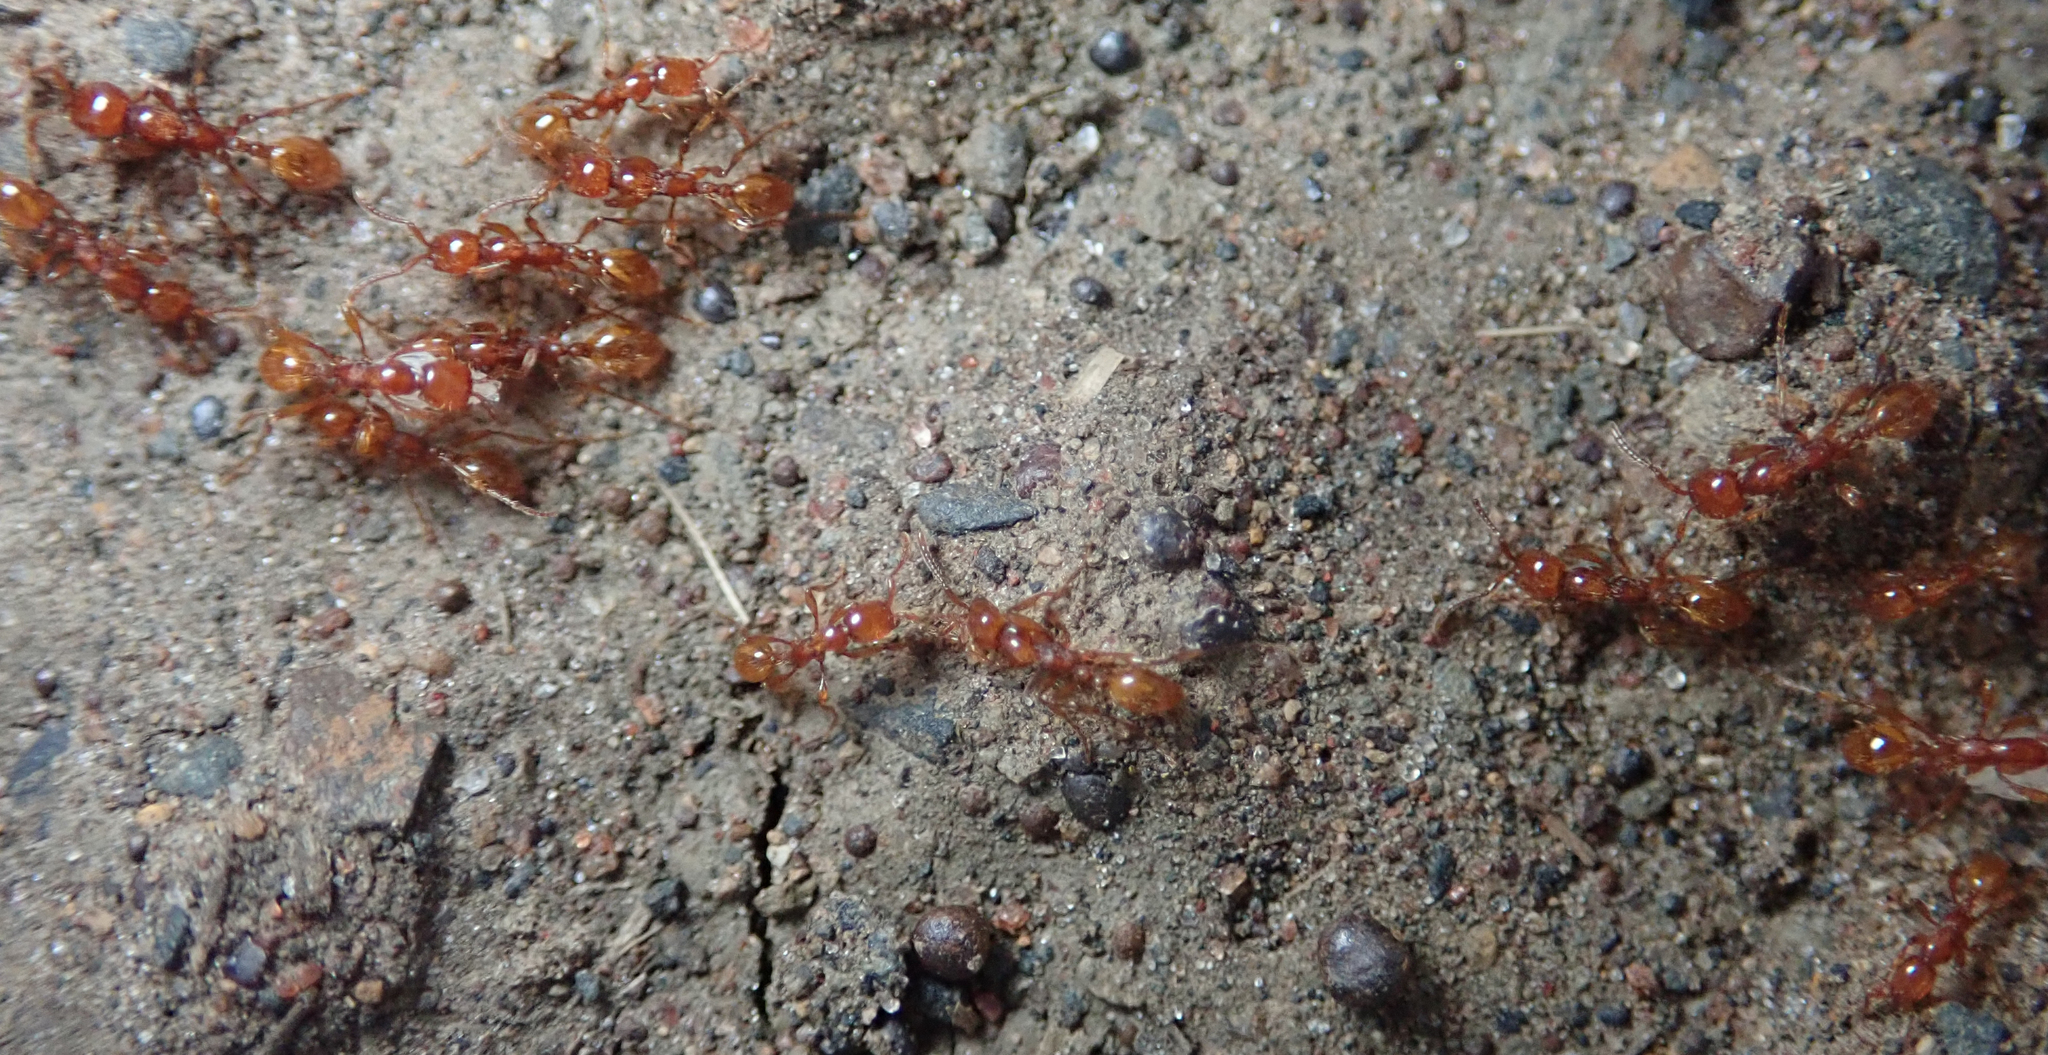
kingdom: Animalia
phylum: Arthropoda
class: Insecta
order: Hymenoptera
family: Formicidae
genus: Aenictus
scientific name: Aenictus rotundatus
